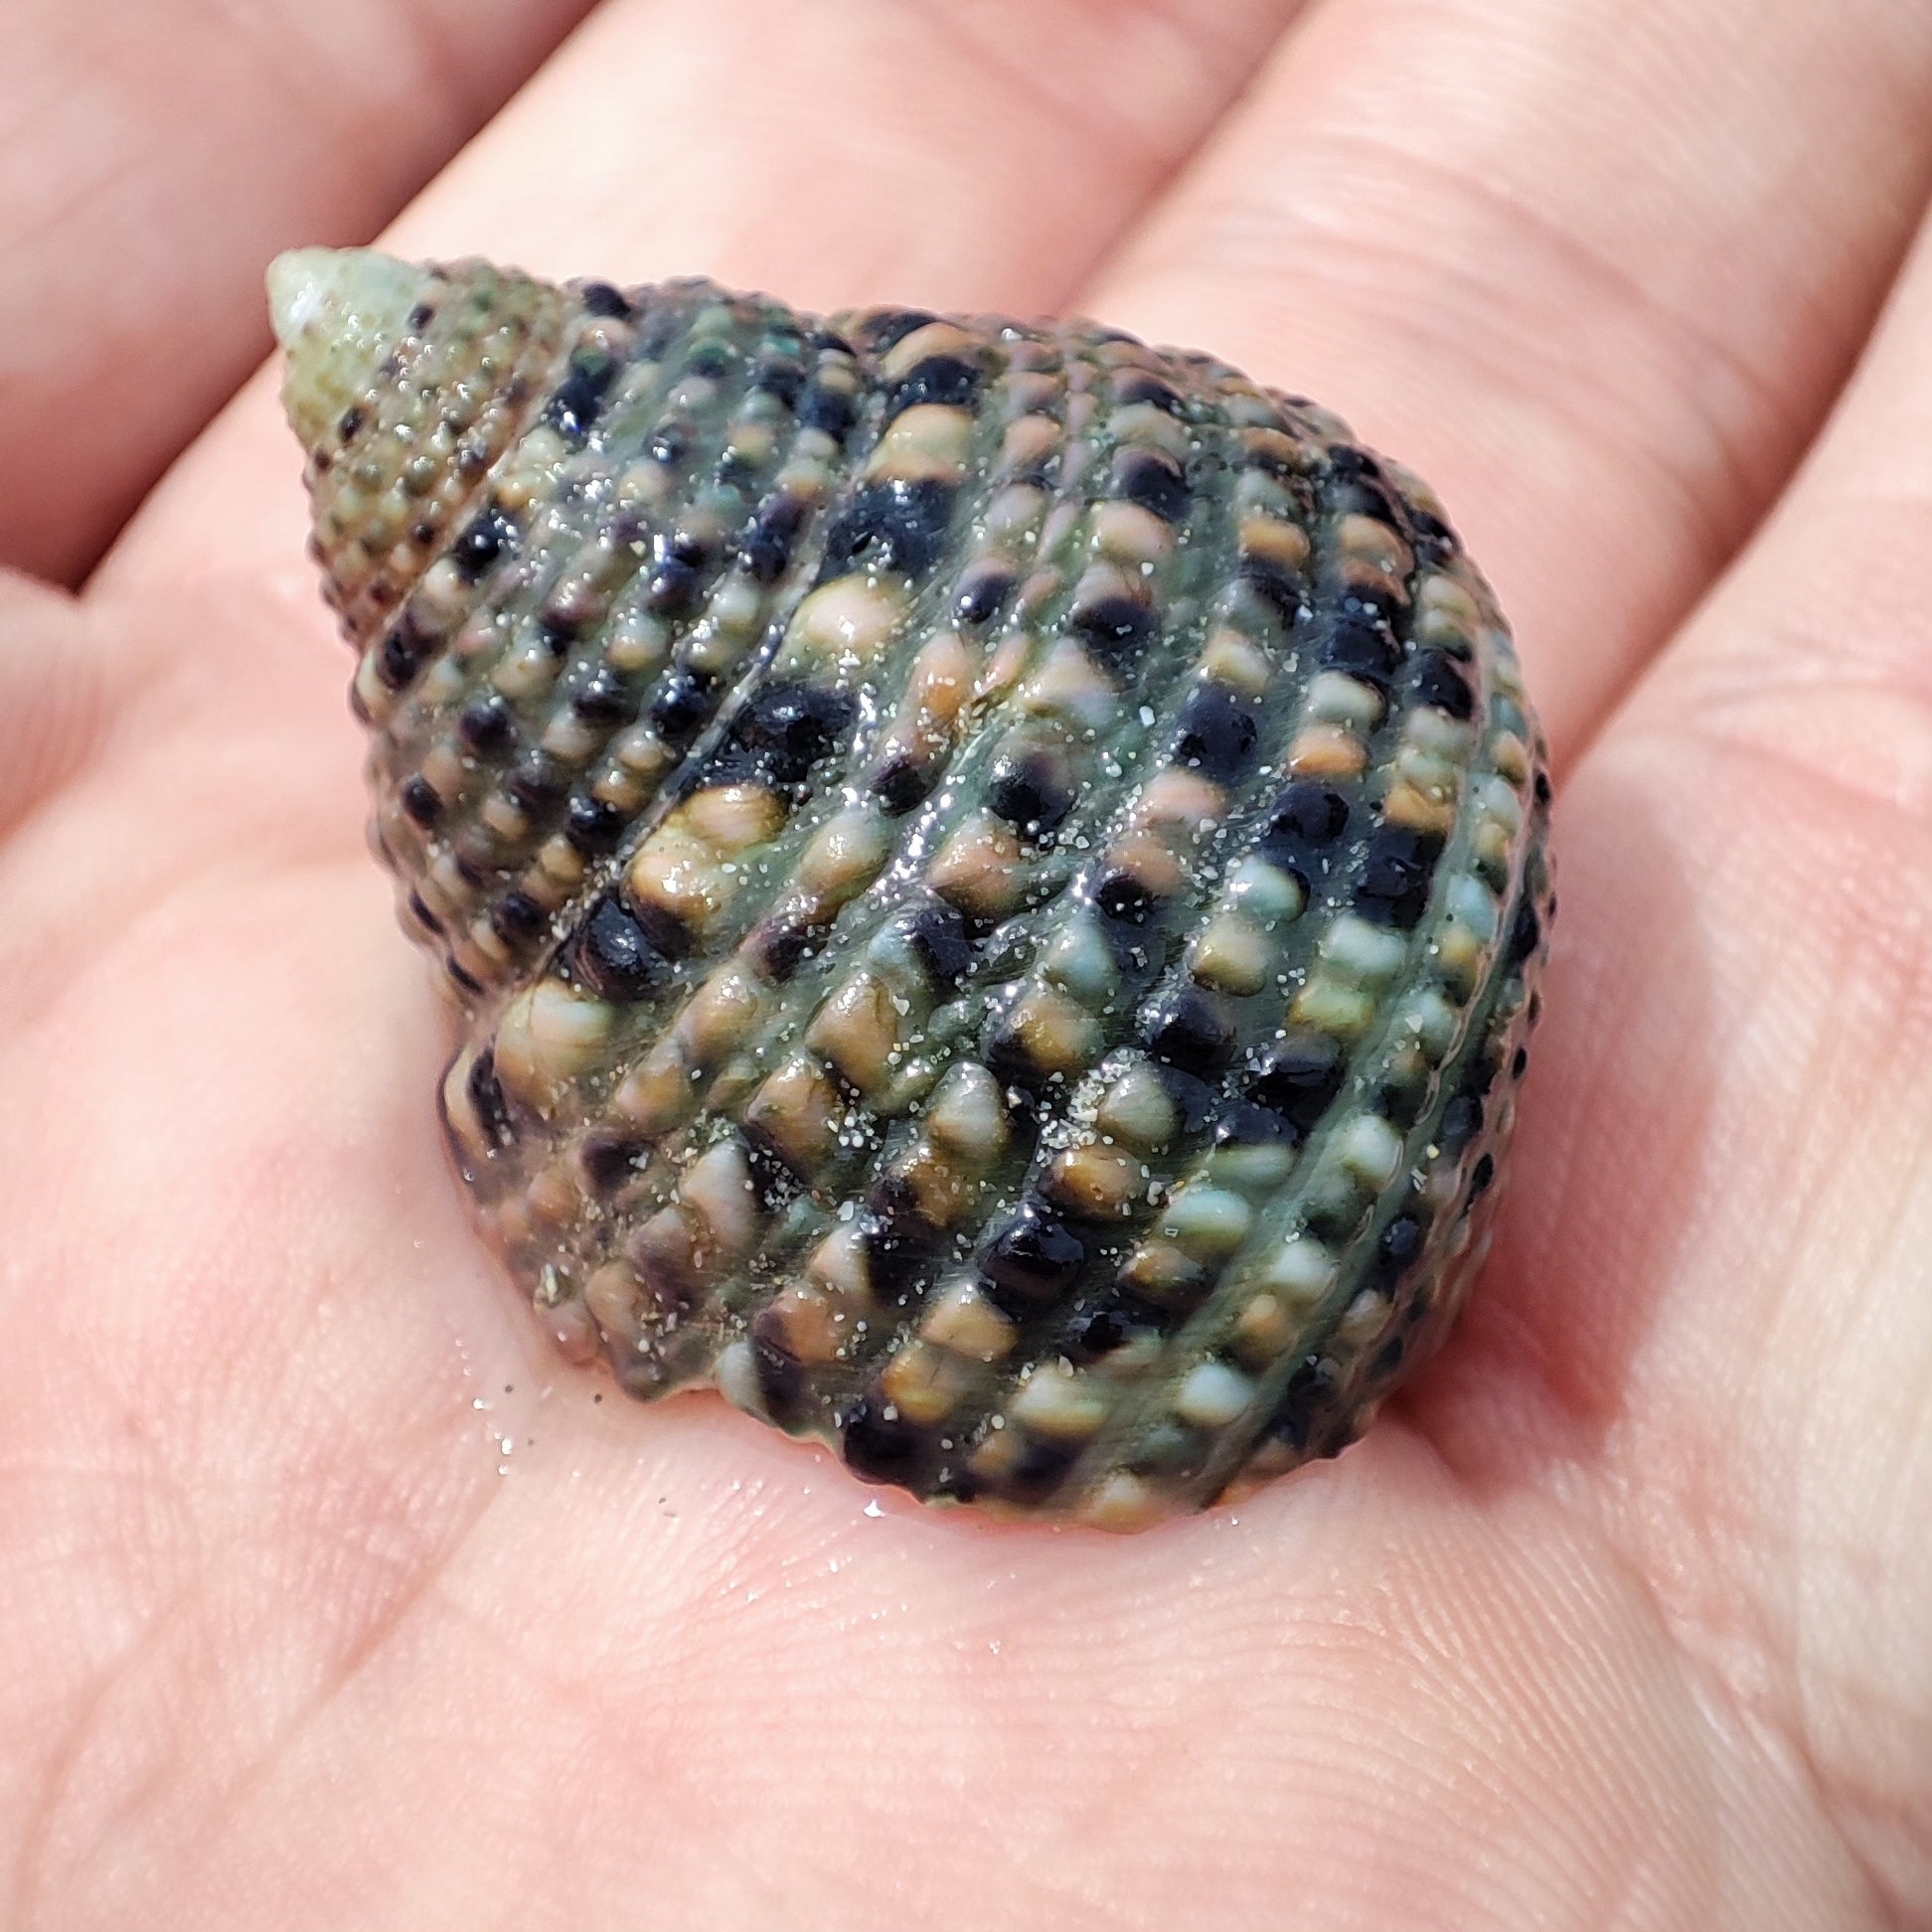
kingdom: Animalia
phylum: Arthropoda
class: Malacostraca
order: Decapoda
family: Diogenidae
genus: Clibanarius
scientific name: Clibanarius striolatus
